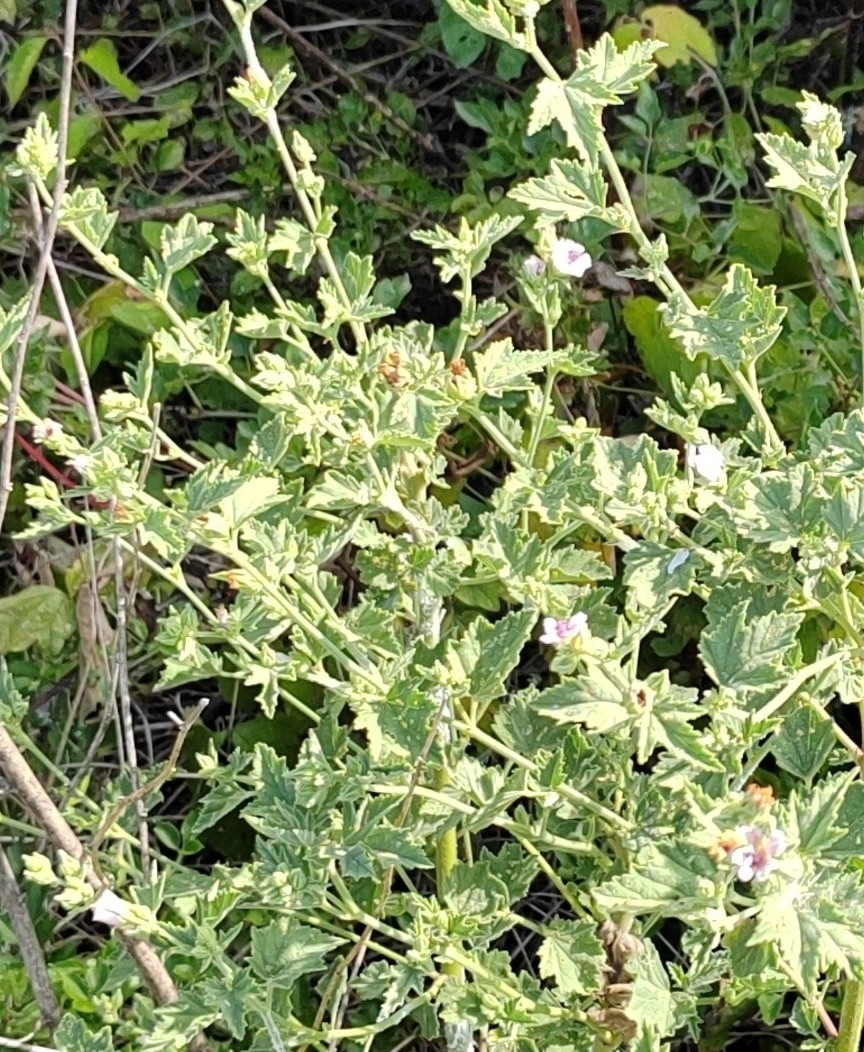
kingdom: Plantae
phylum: Tracheophyta
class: Magnoliopsida
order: Malvales
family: Malvaceae
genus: Althaea
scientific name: Althaea officinalis
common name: Marsh-mallow
